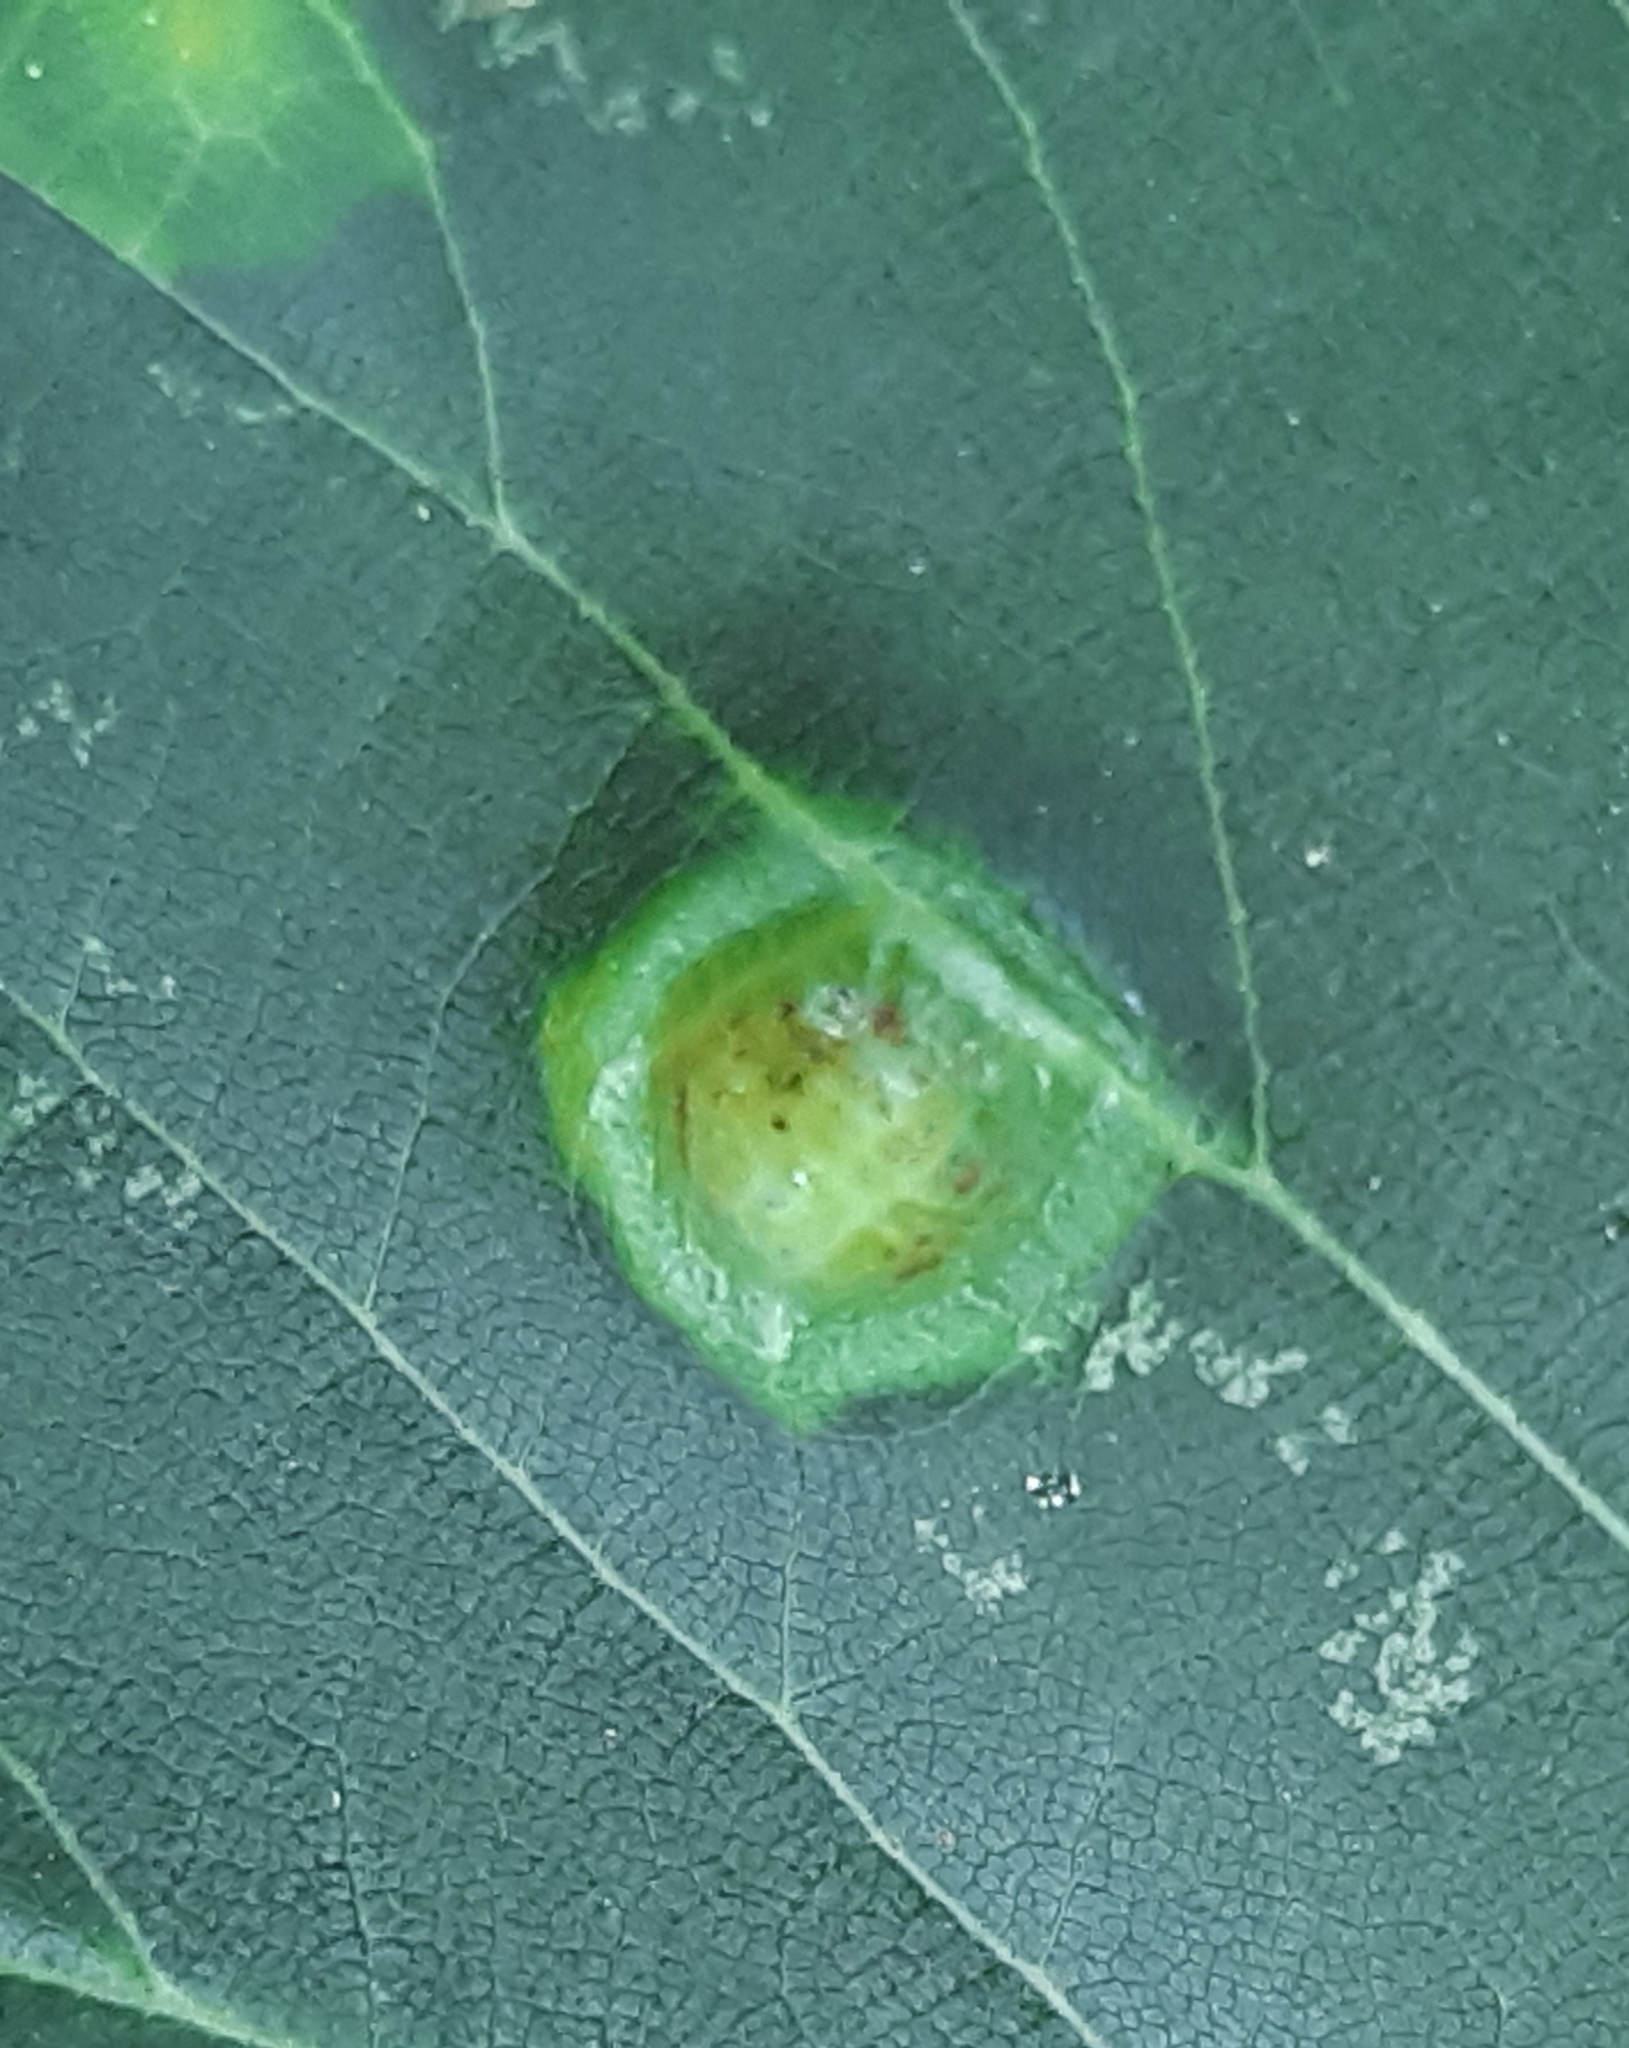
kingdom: Animalia
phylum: Arthropoda
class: Insecta
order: Diptera
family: Cecidomyiidae
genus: Didymomyia
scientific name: Didymomyia tiliacea
